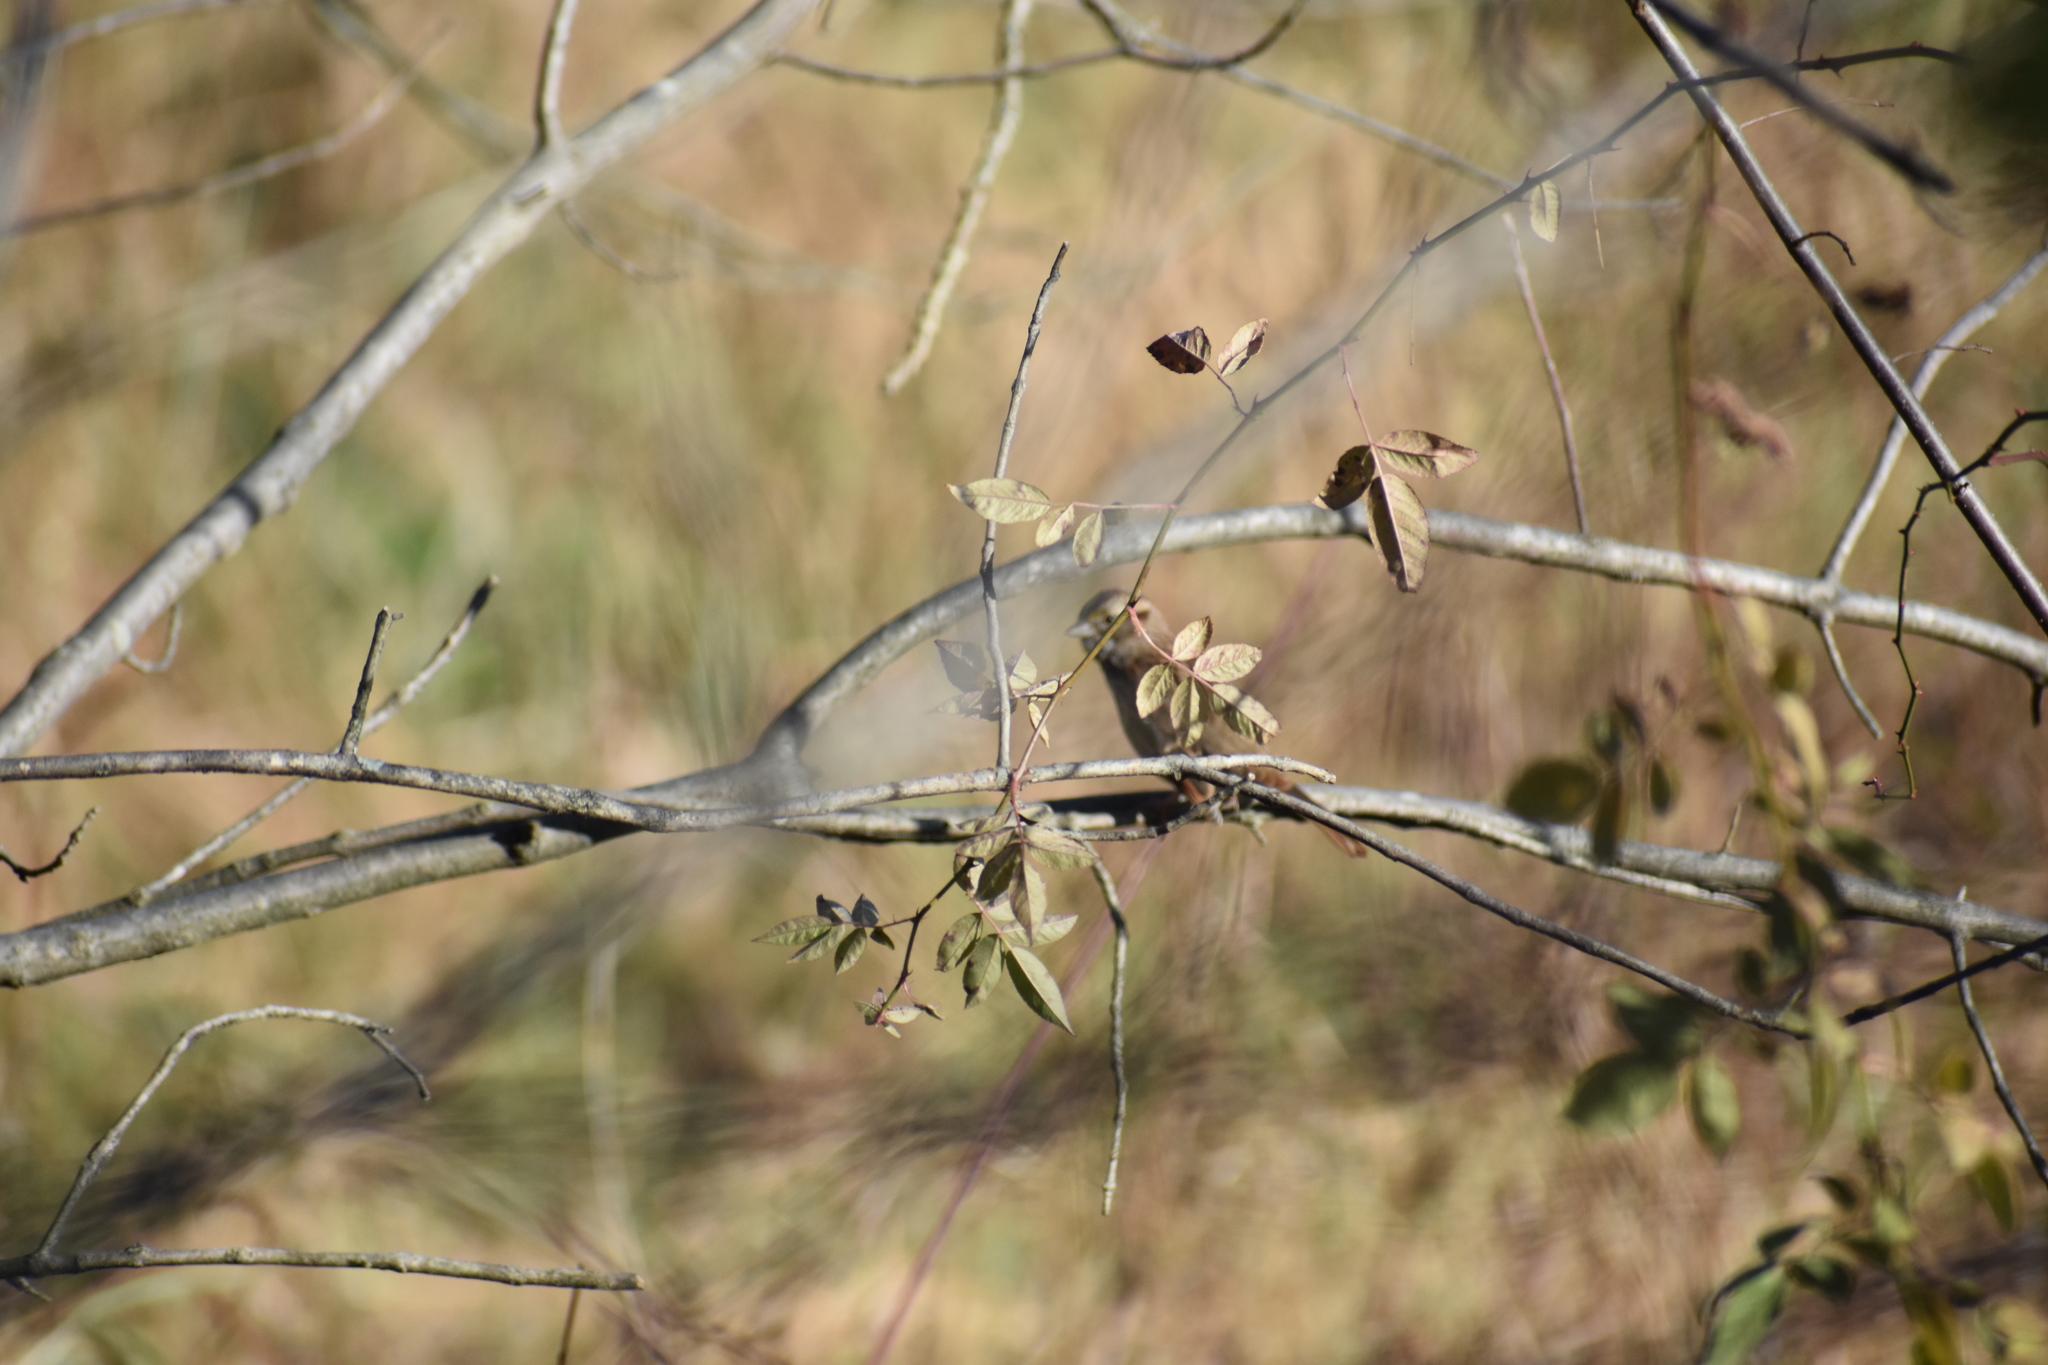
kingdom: Animalia
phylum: Chordata
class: Aves
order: Passeriformes
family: Passerellidae
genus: Zonotrichia
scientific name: Zonotrichia albicollis
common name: White-throated sparrow
